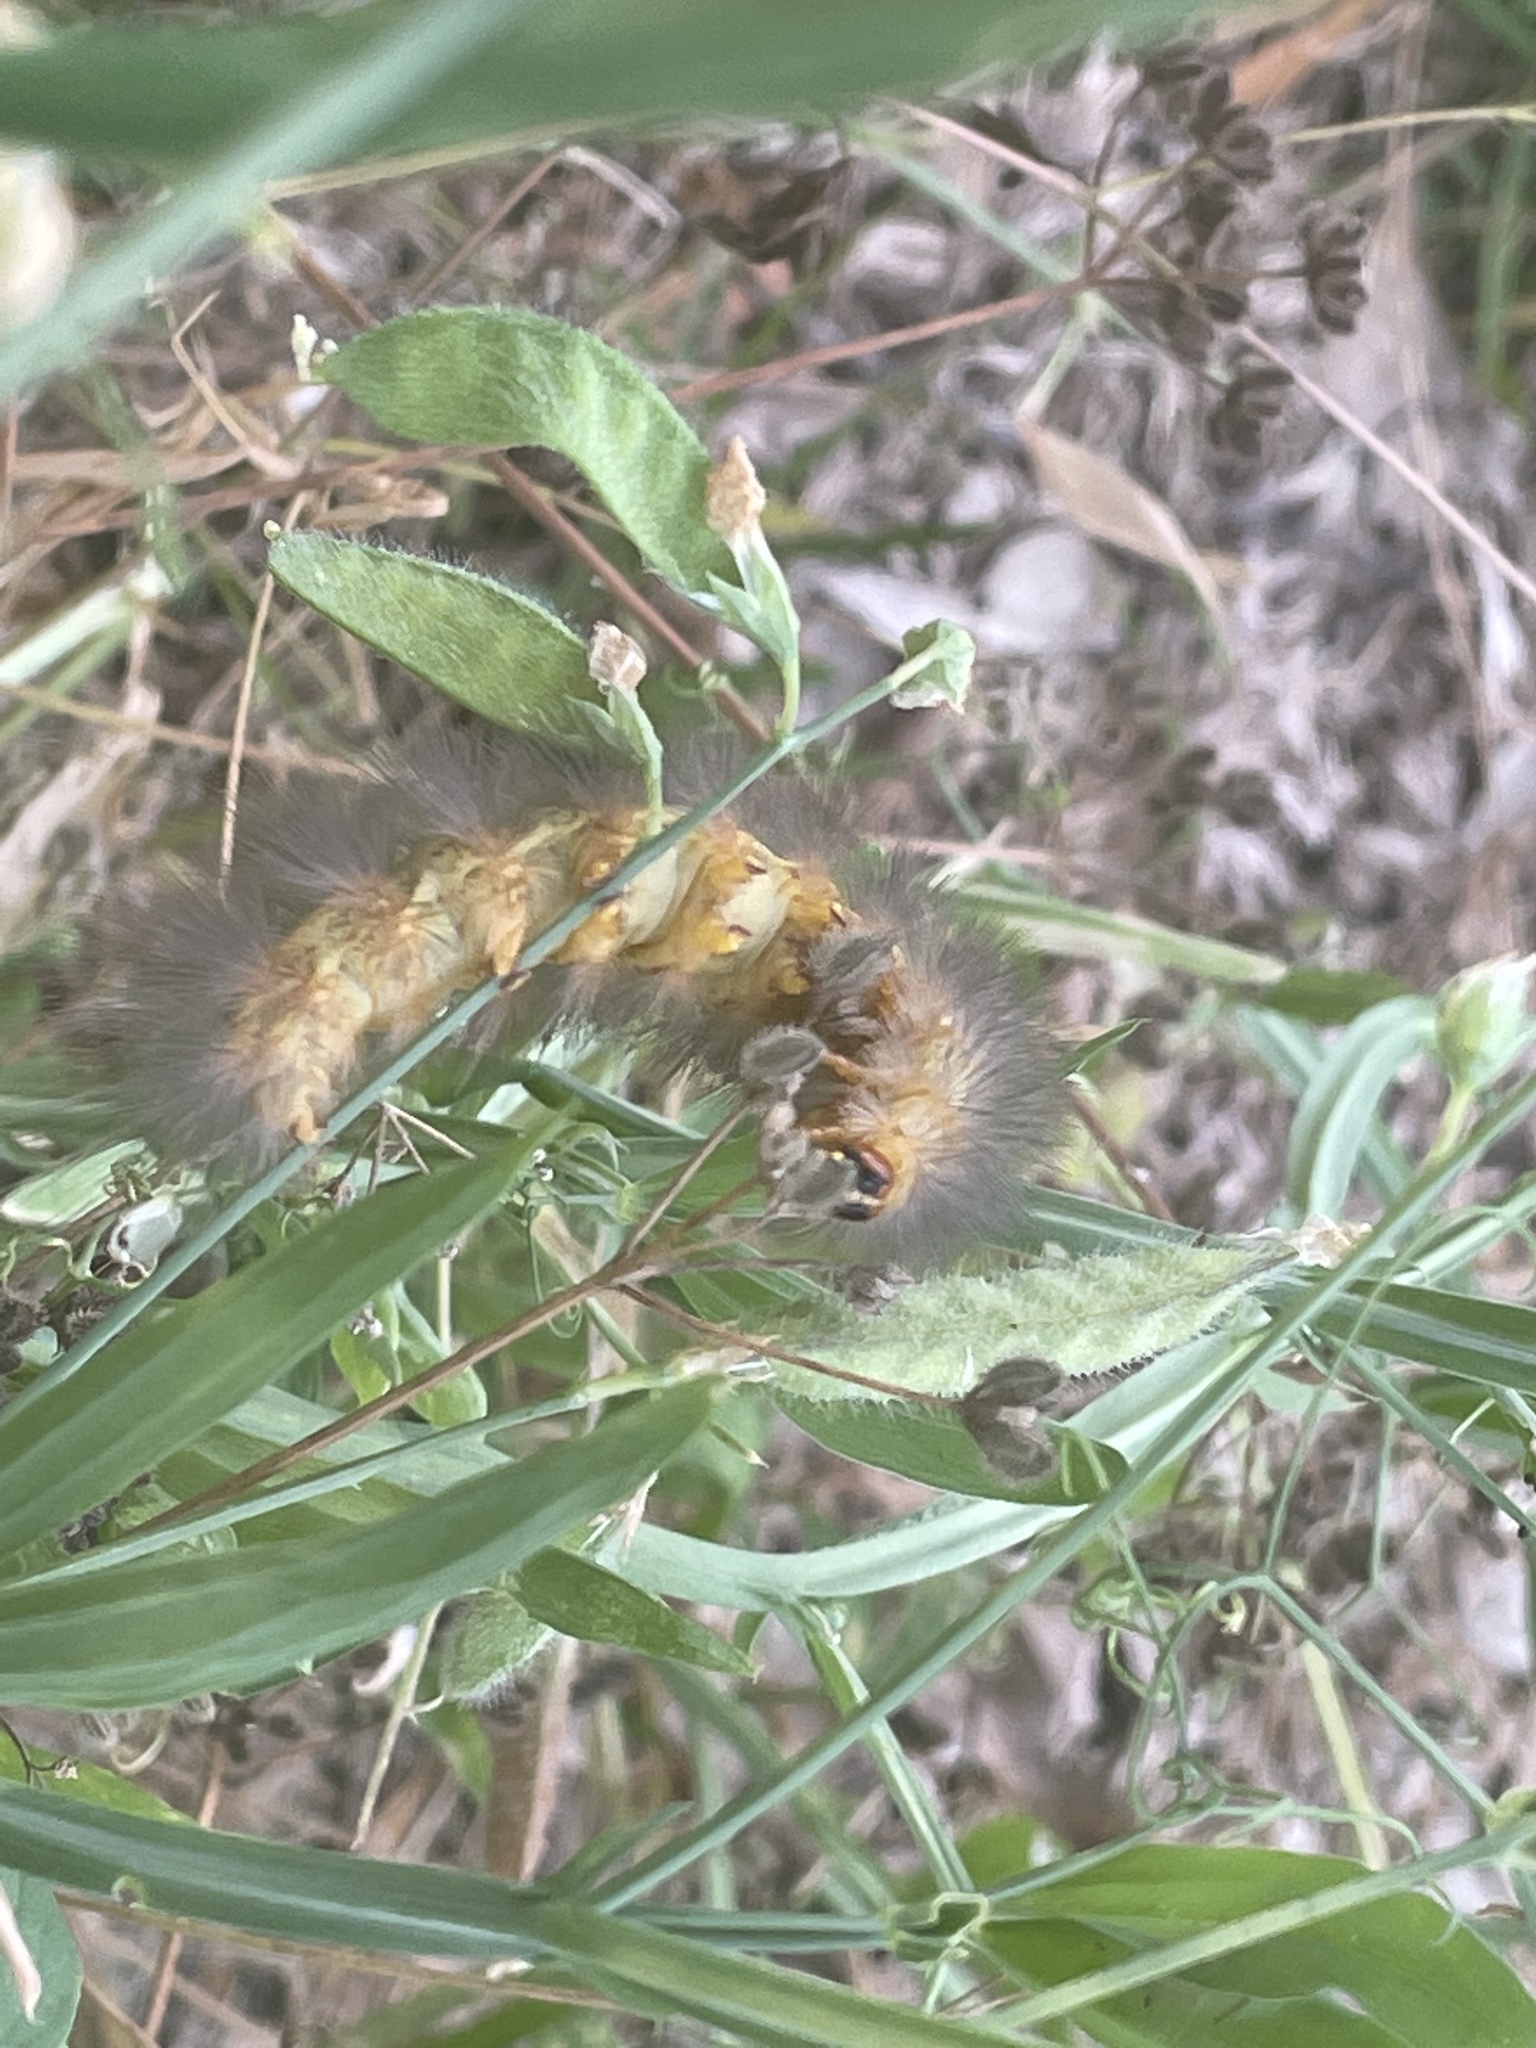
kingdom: Animalia
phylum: Arthropoda
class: Insecta
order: Lepidoptera
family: Erebidae
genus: Estigmene
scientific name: Estigmene acrea
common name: Salt marsh moth
